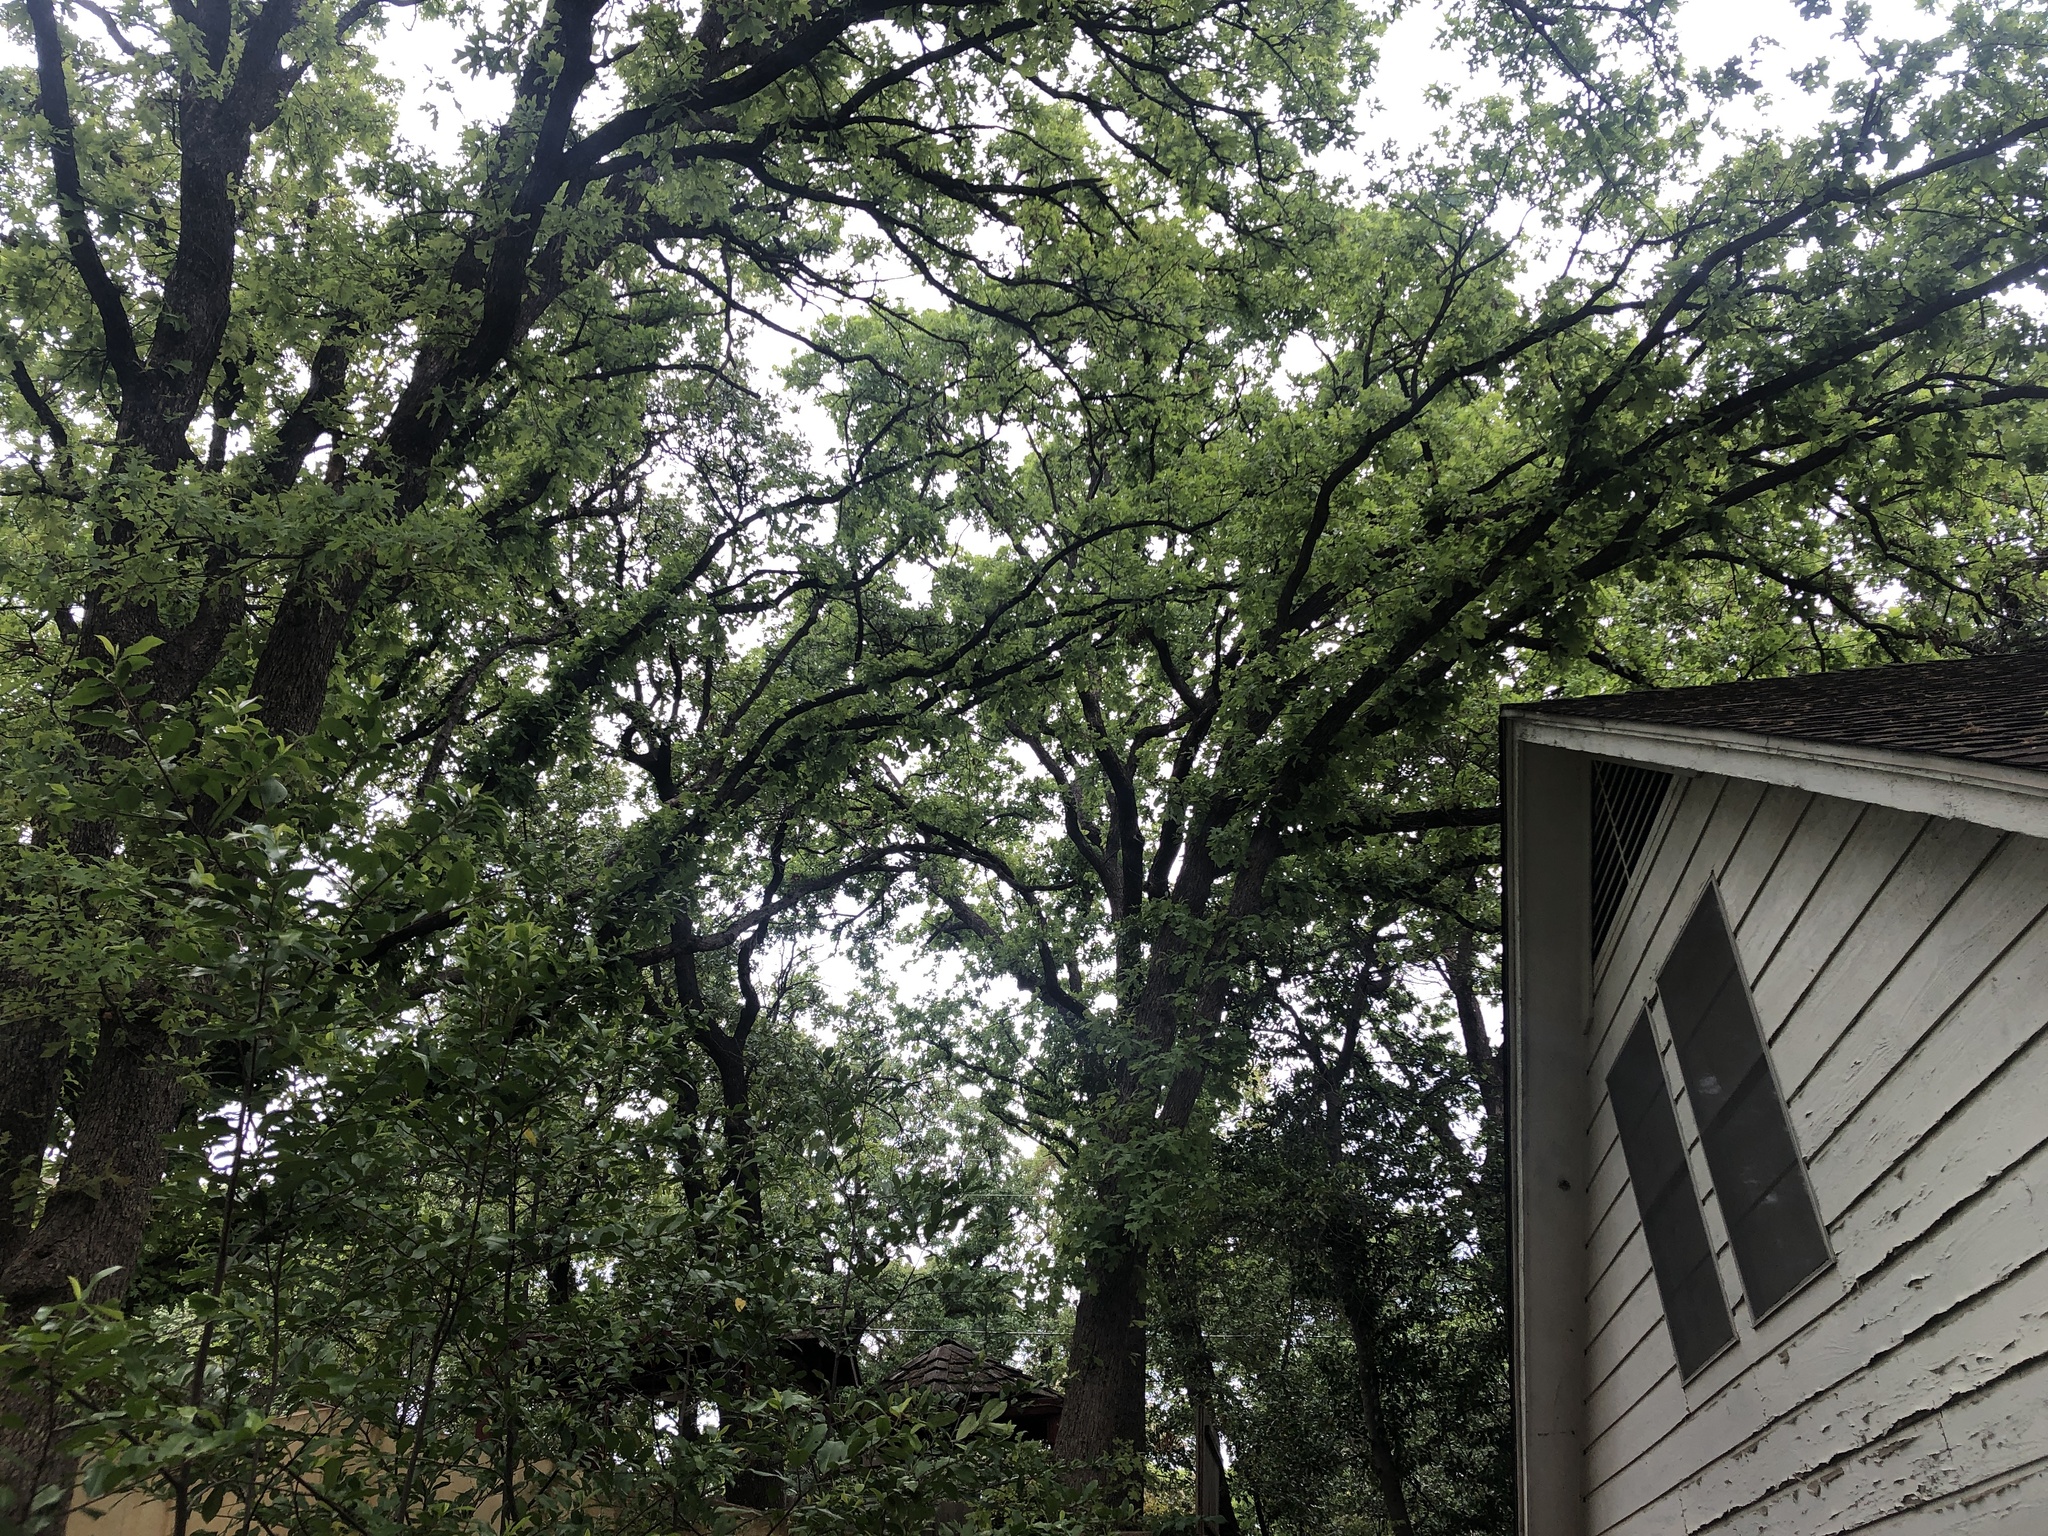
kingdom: Animalia
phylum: Chordata
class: Aves
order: Passeriformes
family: Troglodytidae
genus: Troglodytes
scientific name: Troglodytes aedon
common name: House wren
